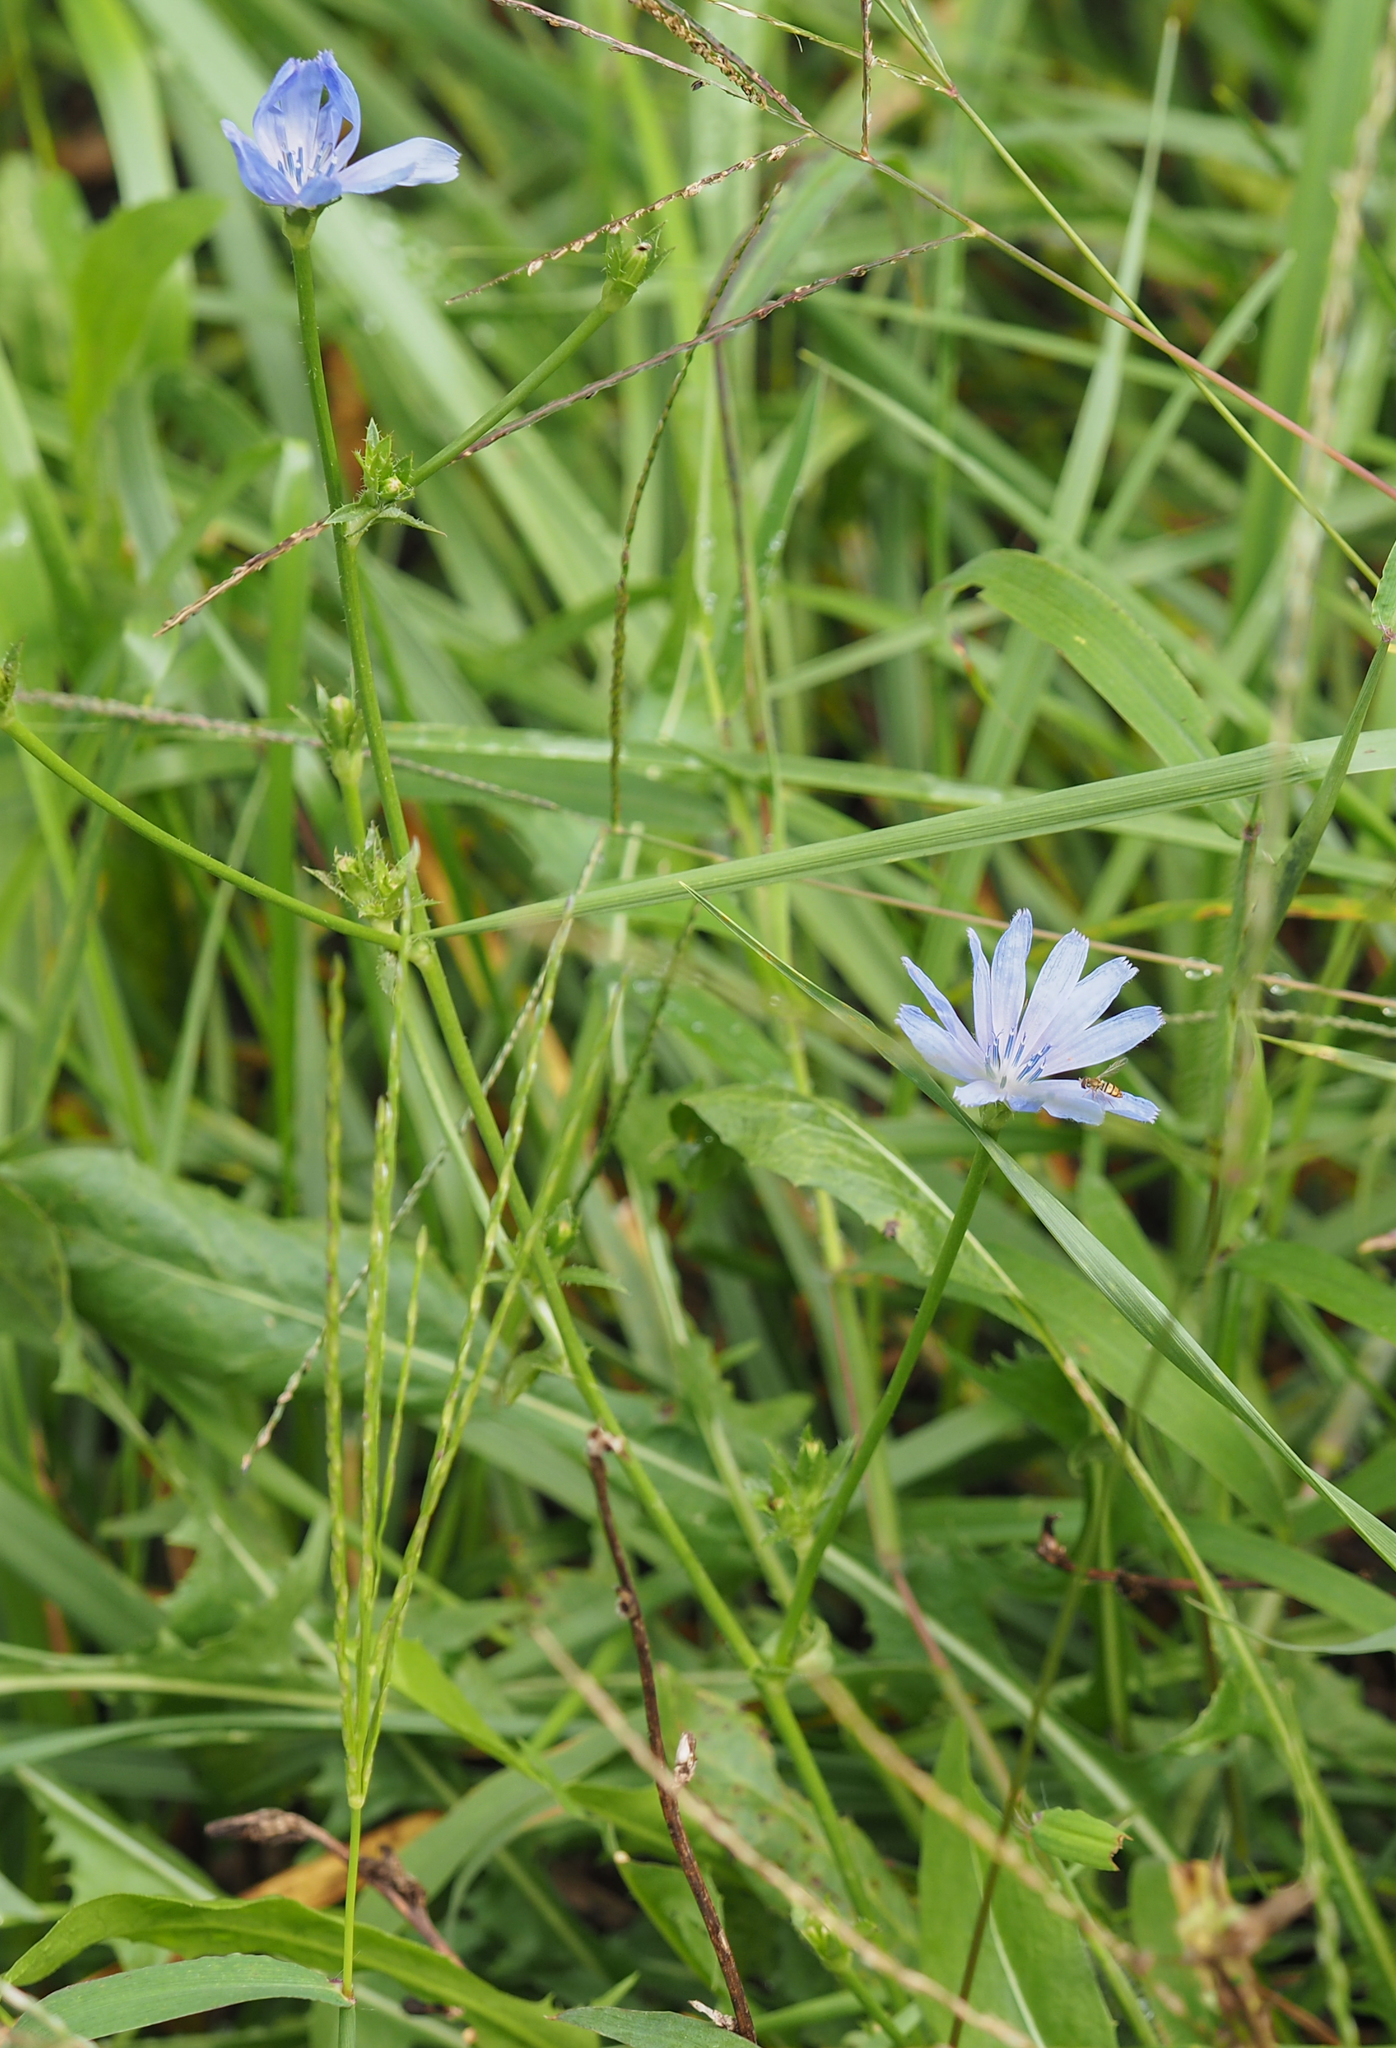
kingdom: Plantae
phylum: Tracheophyta
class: Magnoliopsida
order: Asterales
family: Asteraceae
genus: Cichorium
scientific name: Cichorium intybus
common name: Chicory
